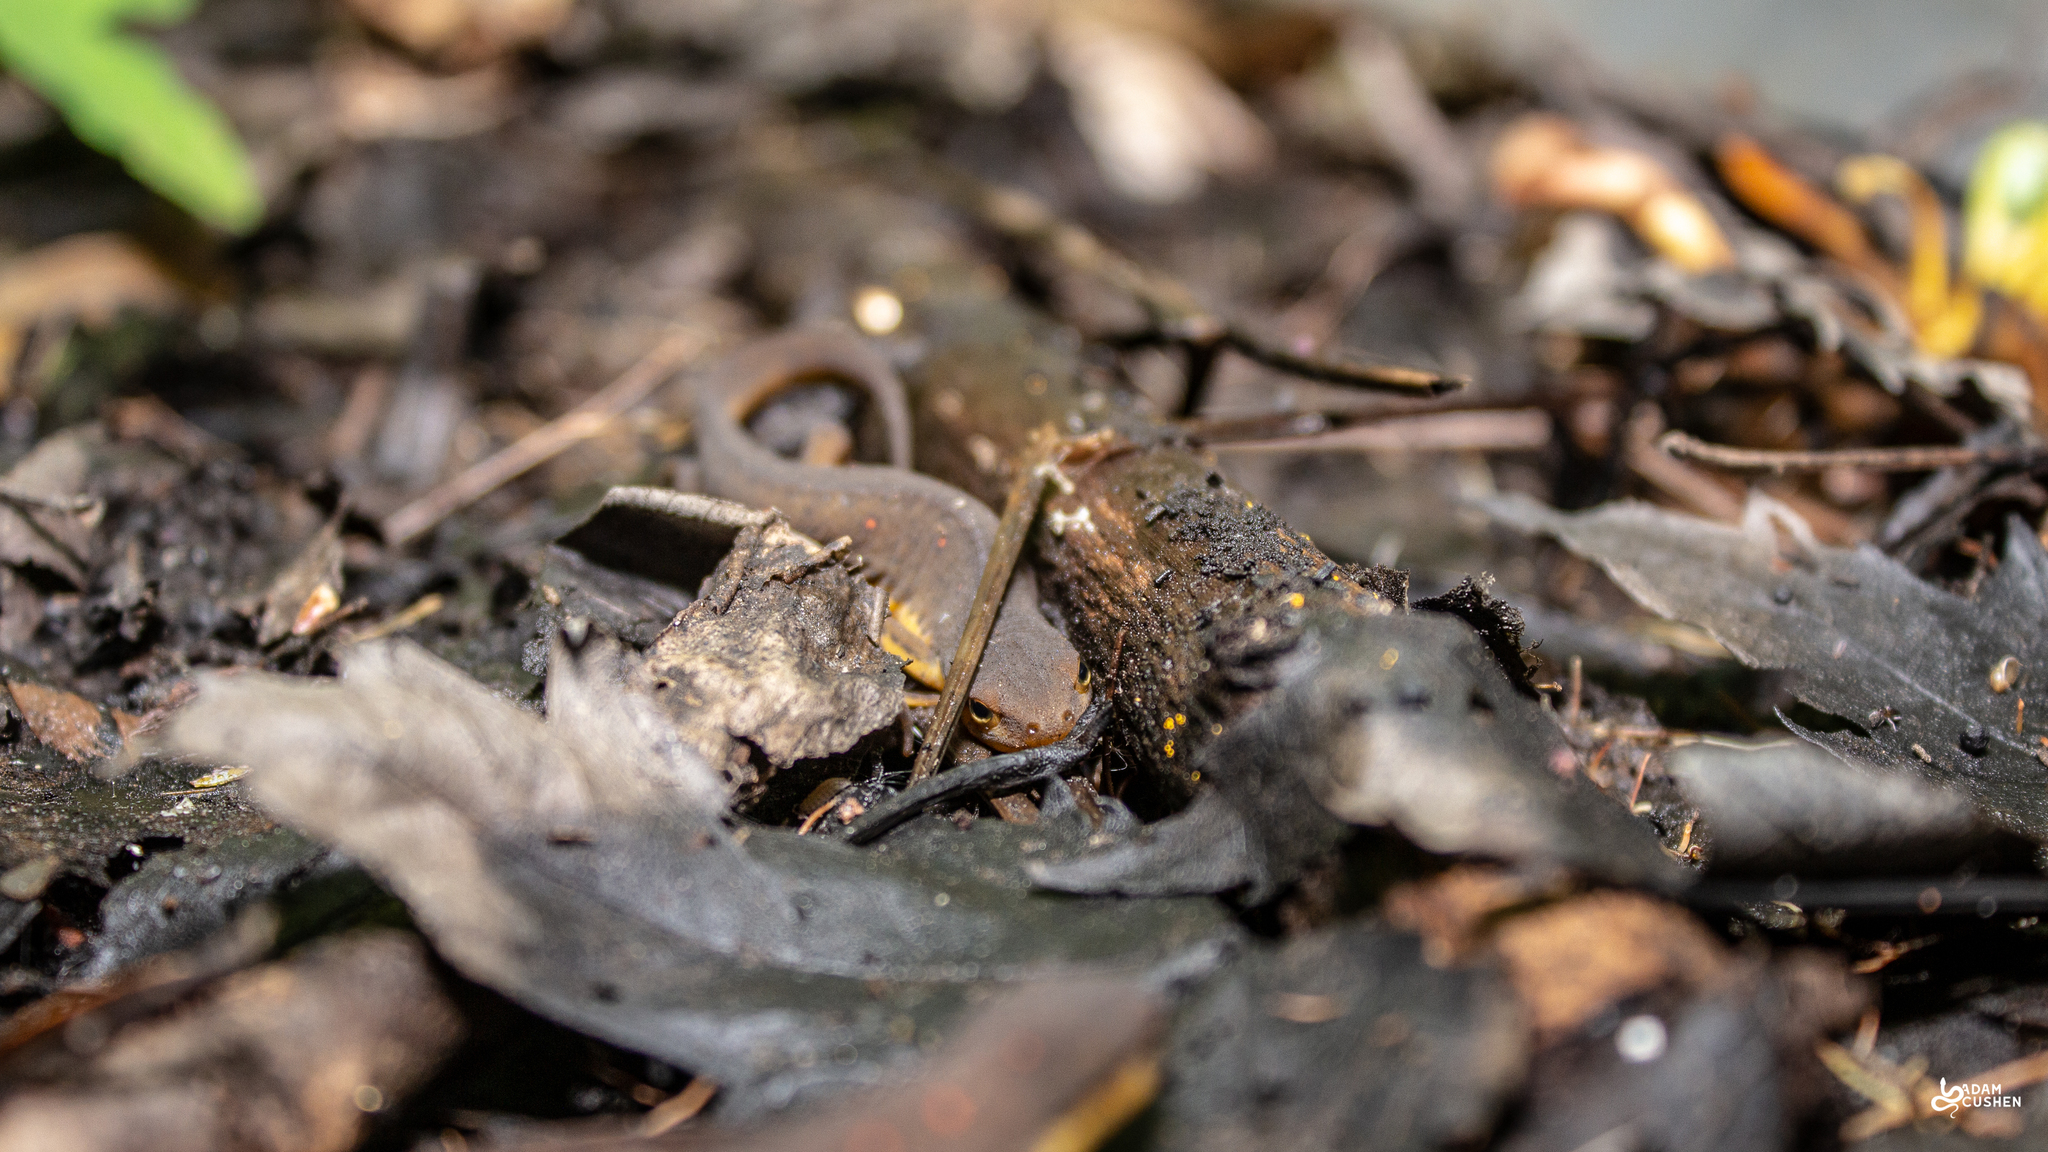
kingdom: Animalia
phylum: Chordata
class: Amphibia
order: Caudata
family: Salamandridae
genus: Notophthalmus
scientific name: Notophthalmus viridescens
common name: Eastern newt
